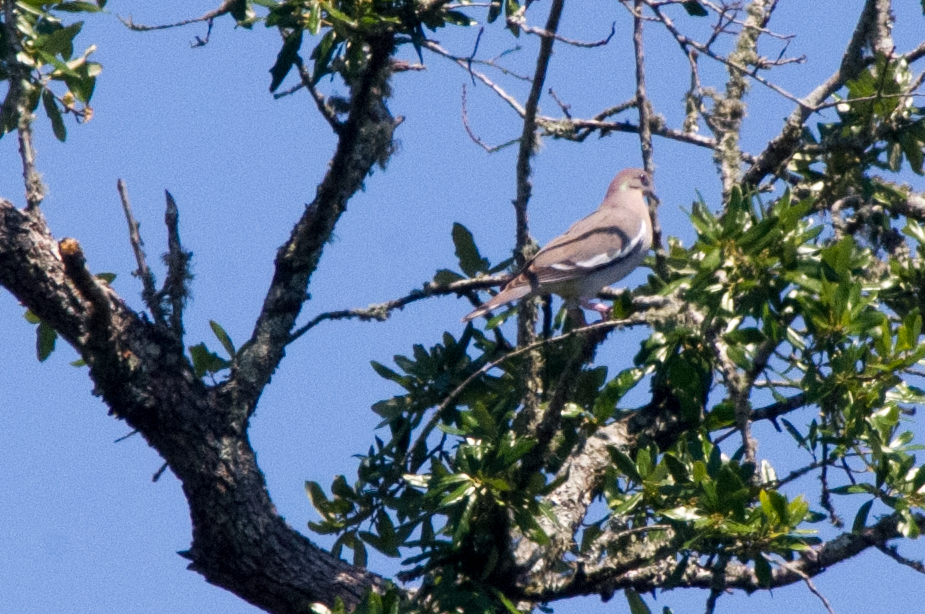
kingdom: Animalia
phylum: Chordata
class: Aves
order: Columbiformes
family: Columbidae
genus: Zenaida
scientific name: Zenaida asiatica
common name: White-winged dove
